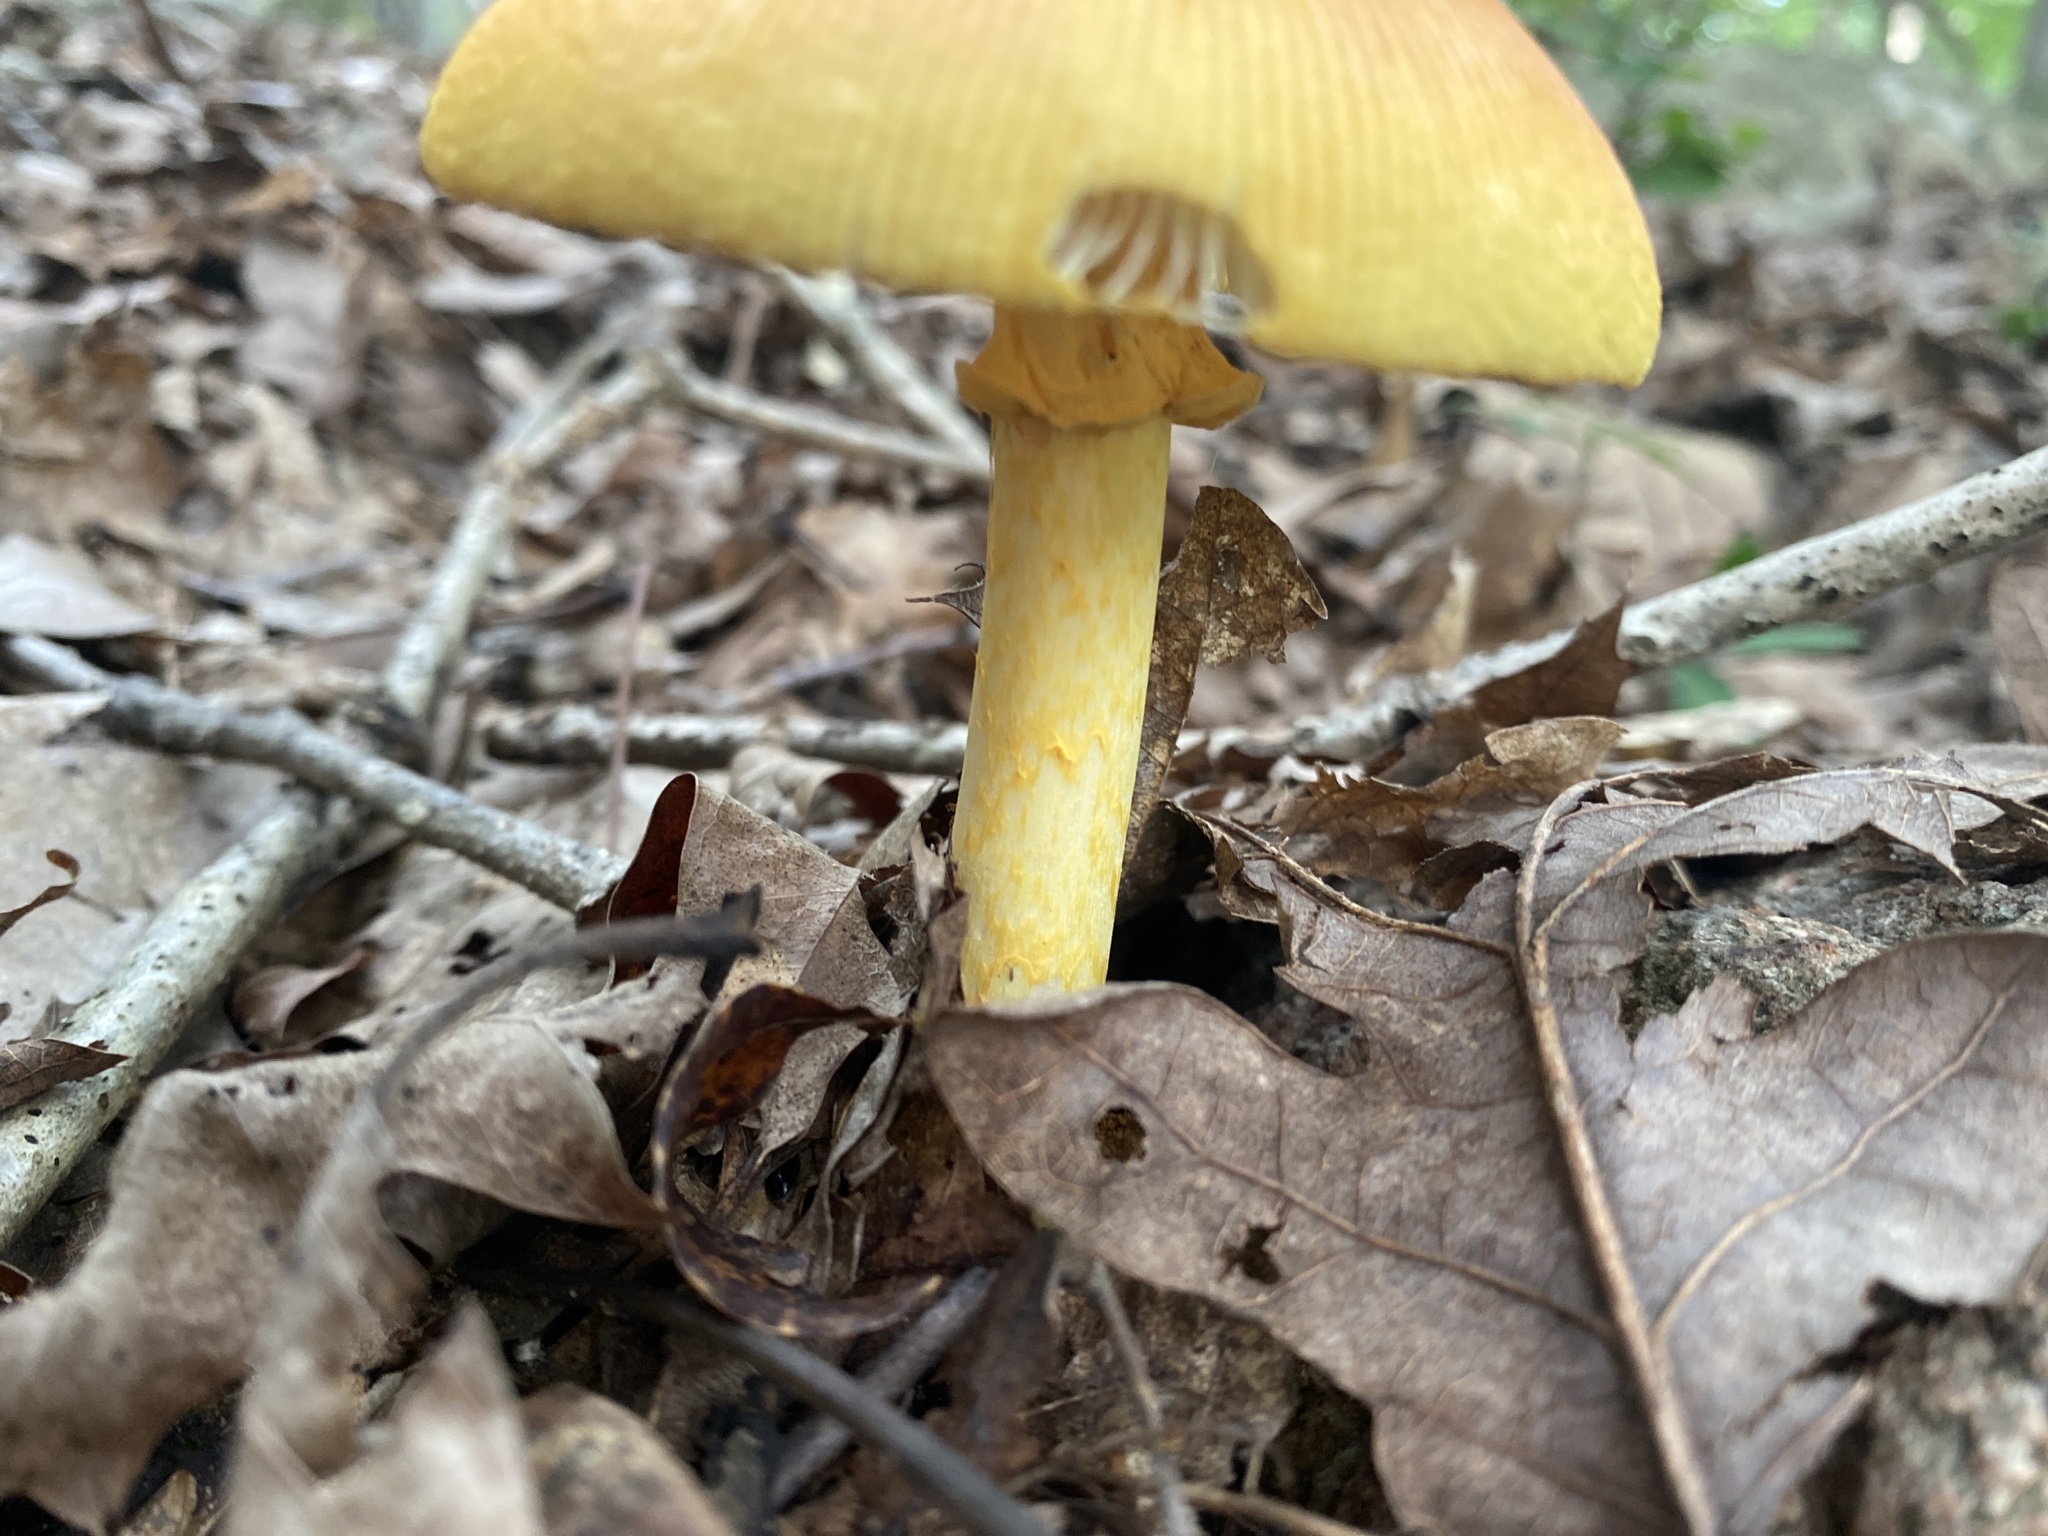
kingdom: Fungi
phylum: Basidiomycota
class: Agaricomycetes
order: Agaricales
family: Amanitaceae
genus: Amanita
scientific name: Amanita arkansana
